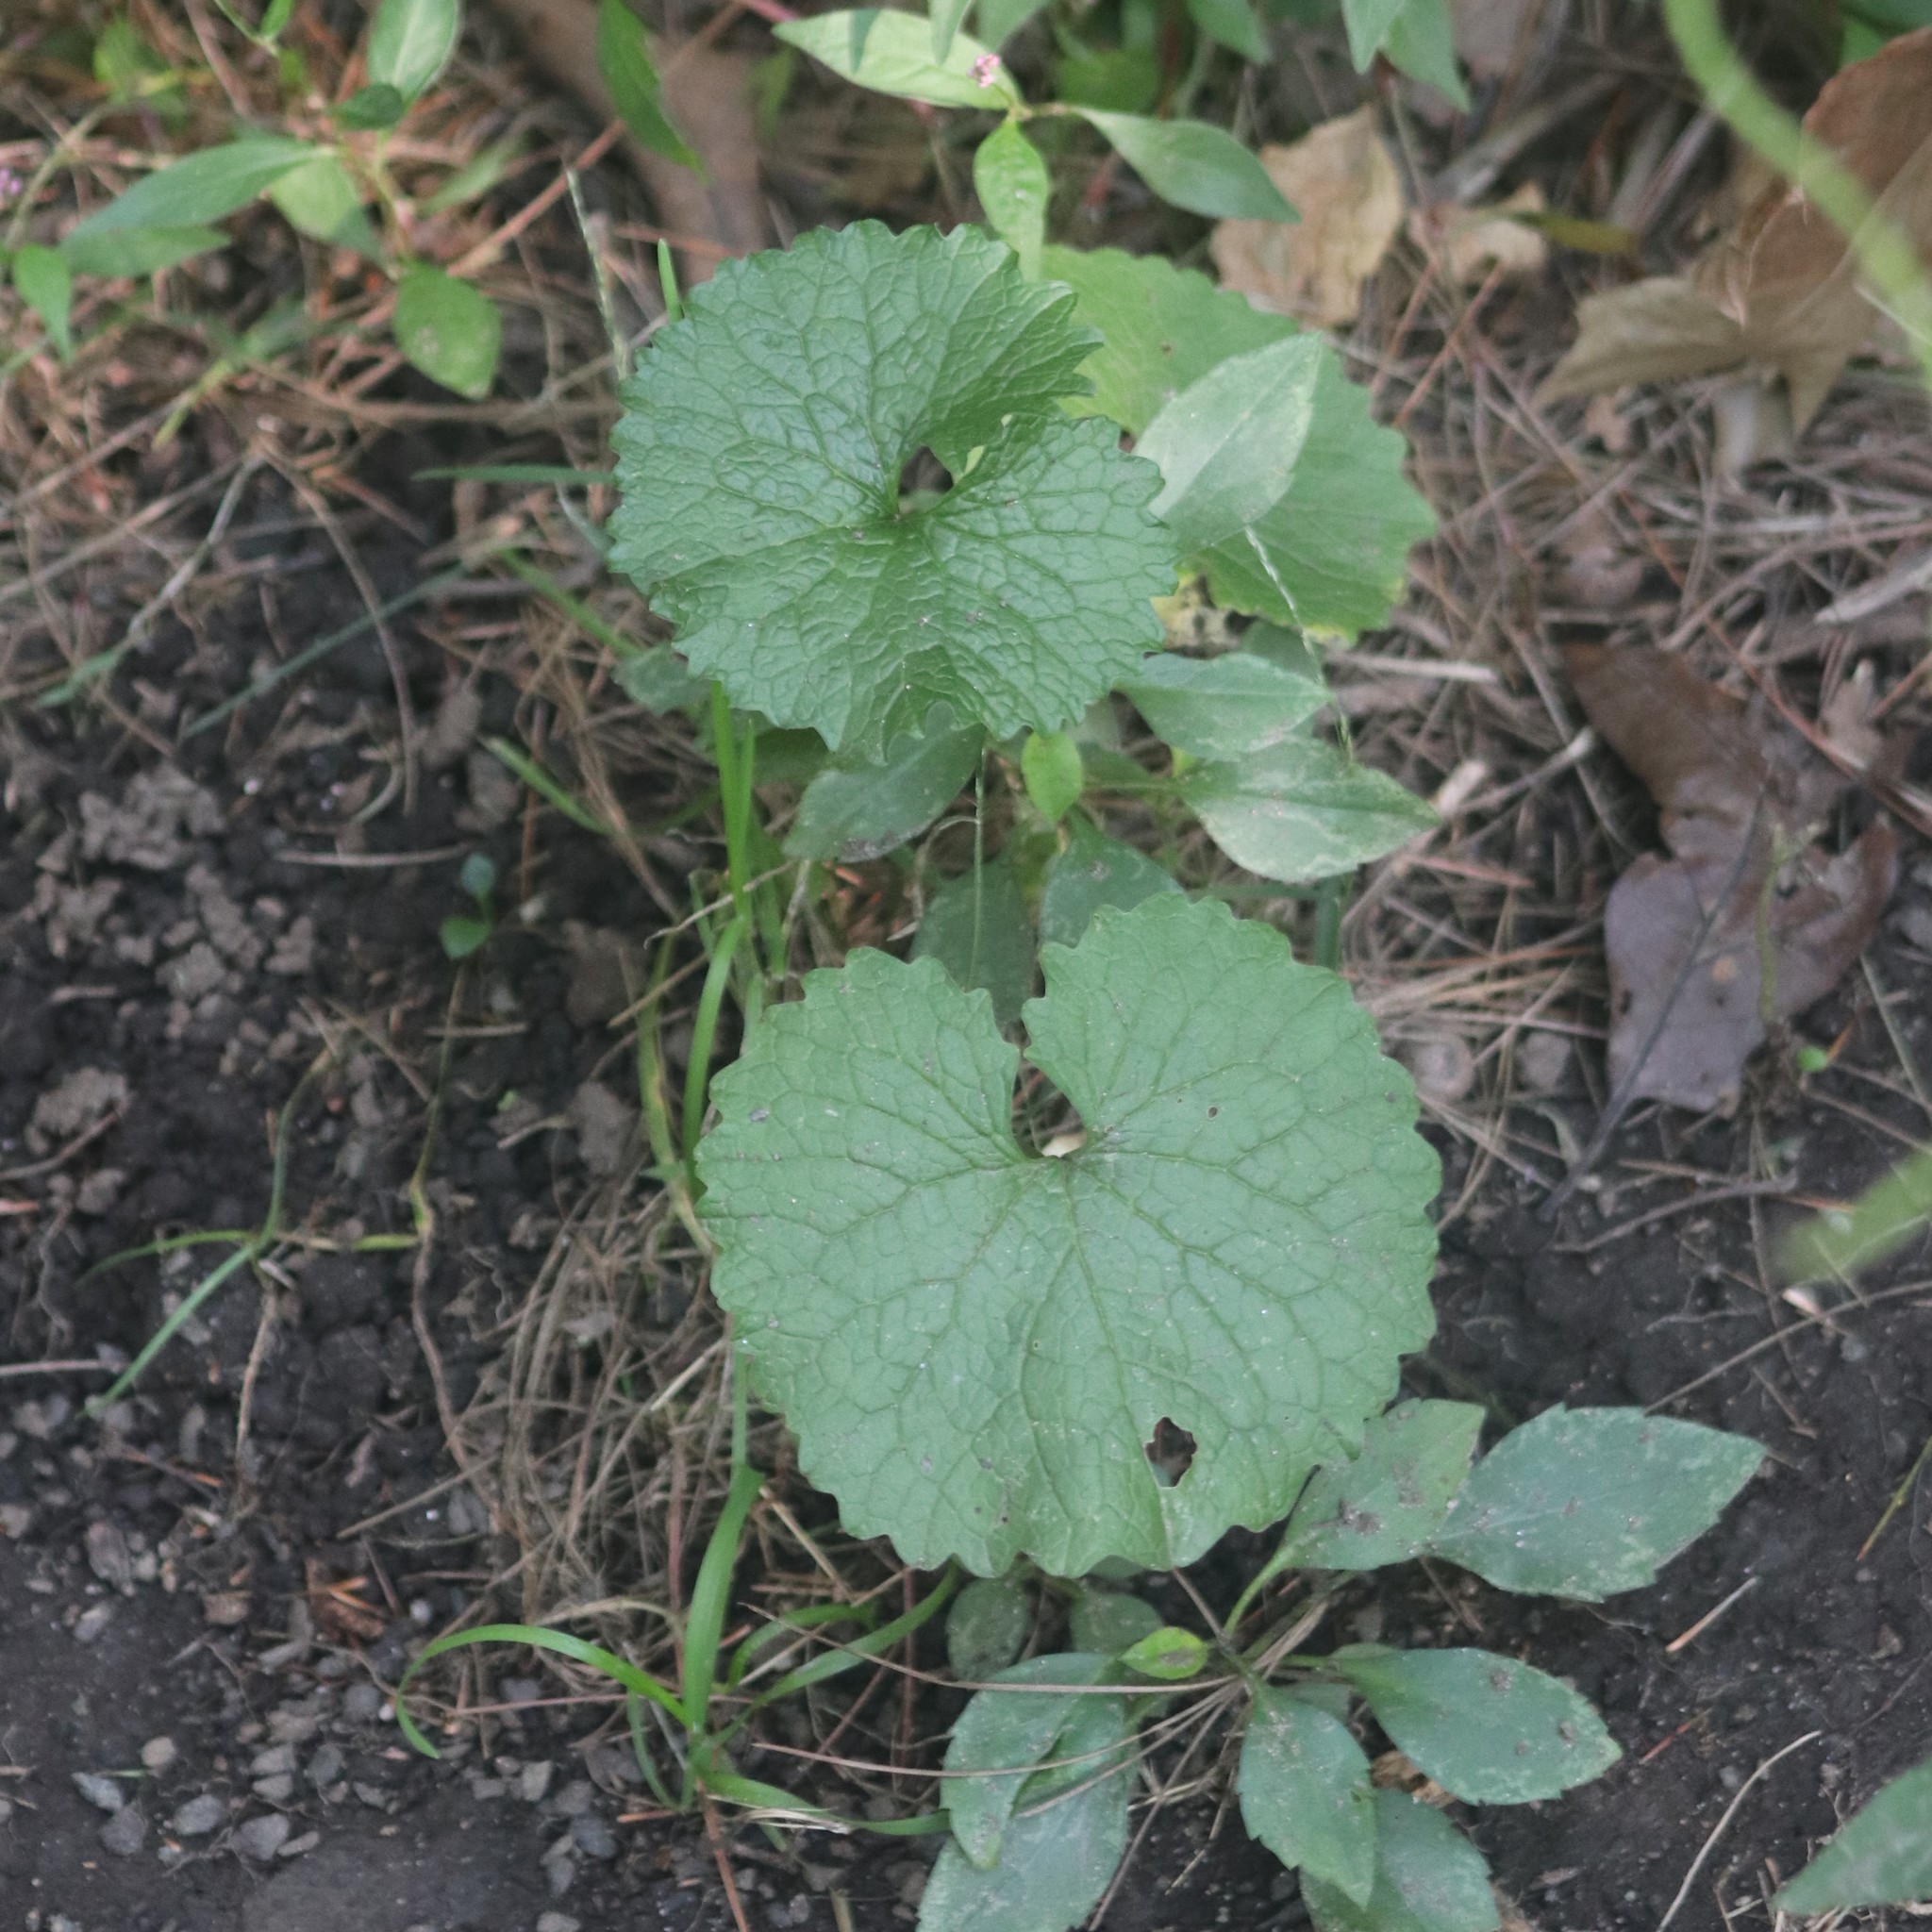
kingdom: Plantae
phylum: Tracheophyta
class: Magnoliopsida
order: Brassicales
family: Brassicaceae
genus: Alliaria
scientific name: Alliaria petiolata
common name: Garlic mustard
